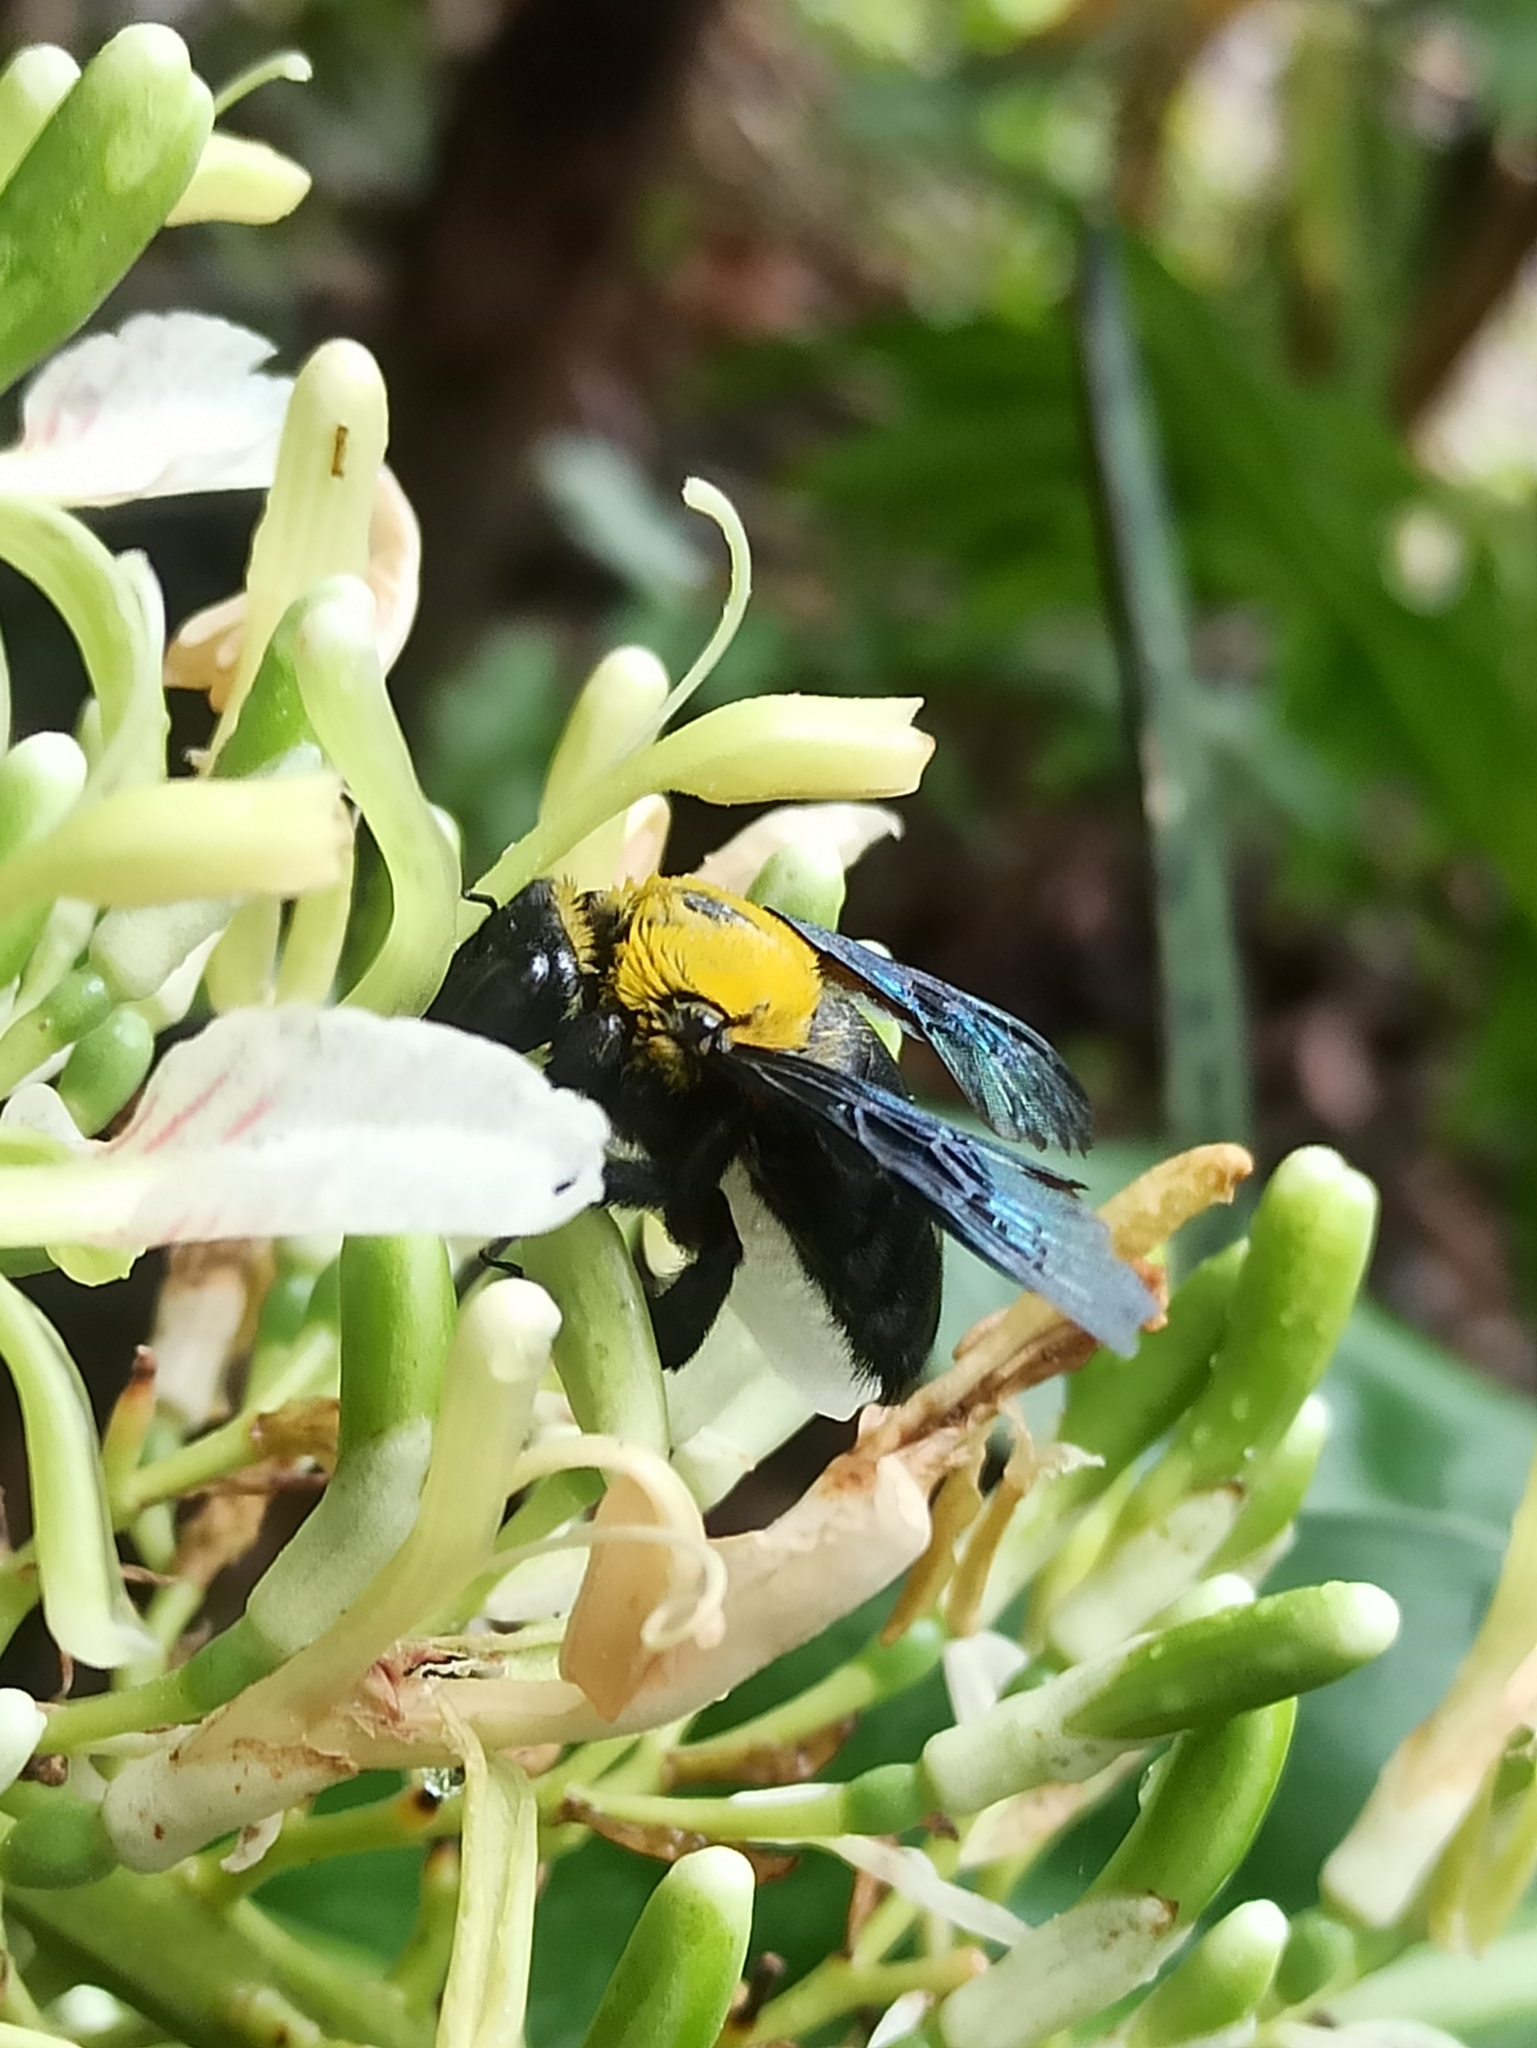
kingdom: Animalia
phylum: Arthropoda
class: Insecta
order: Hymenoptera
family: Apidae
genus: Xylocopa
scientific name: Xylocopa ruficornis
